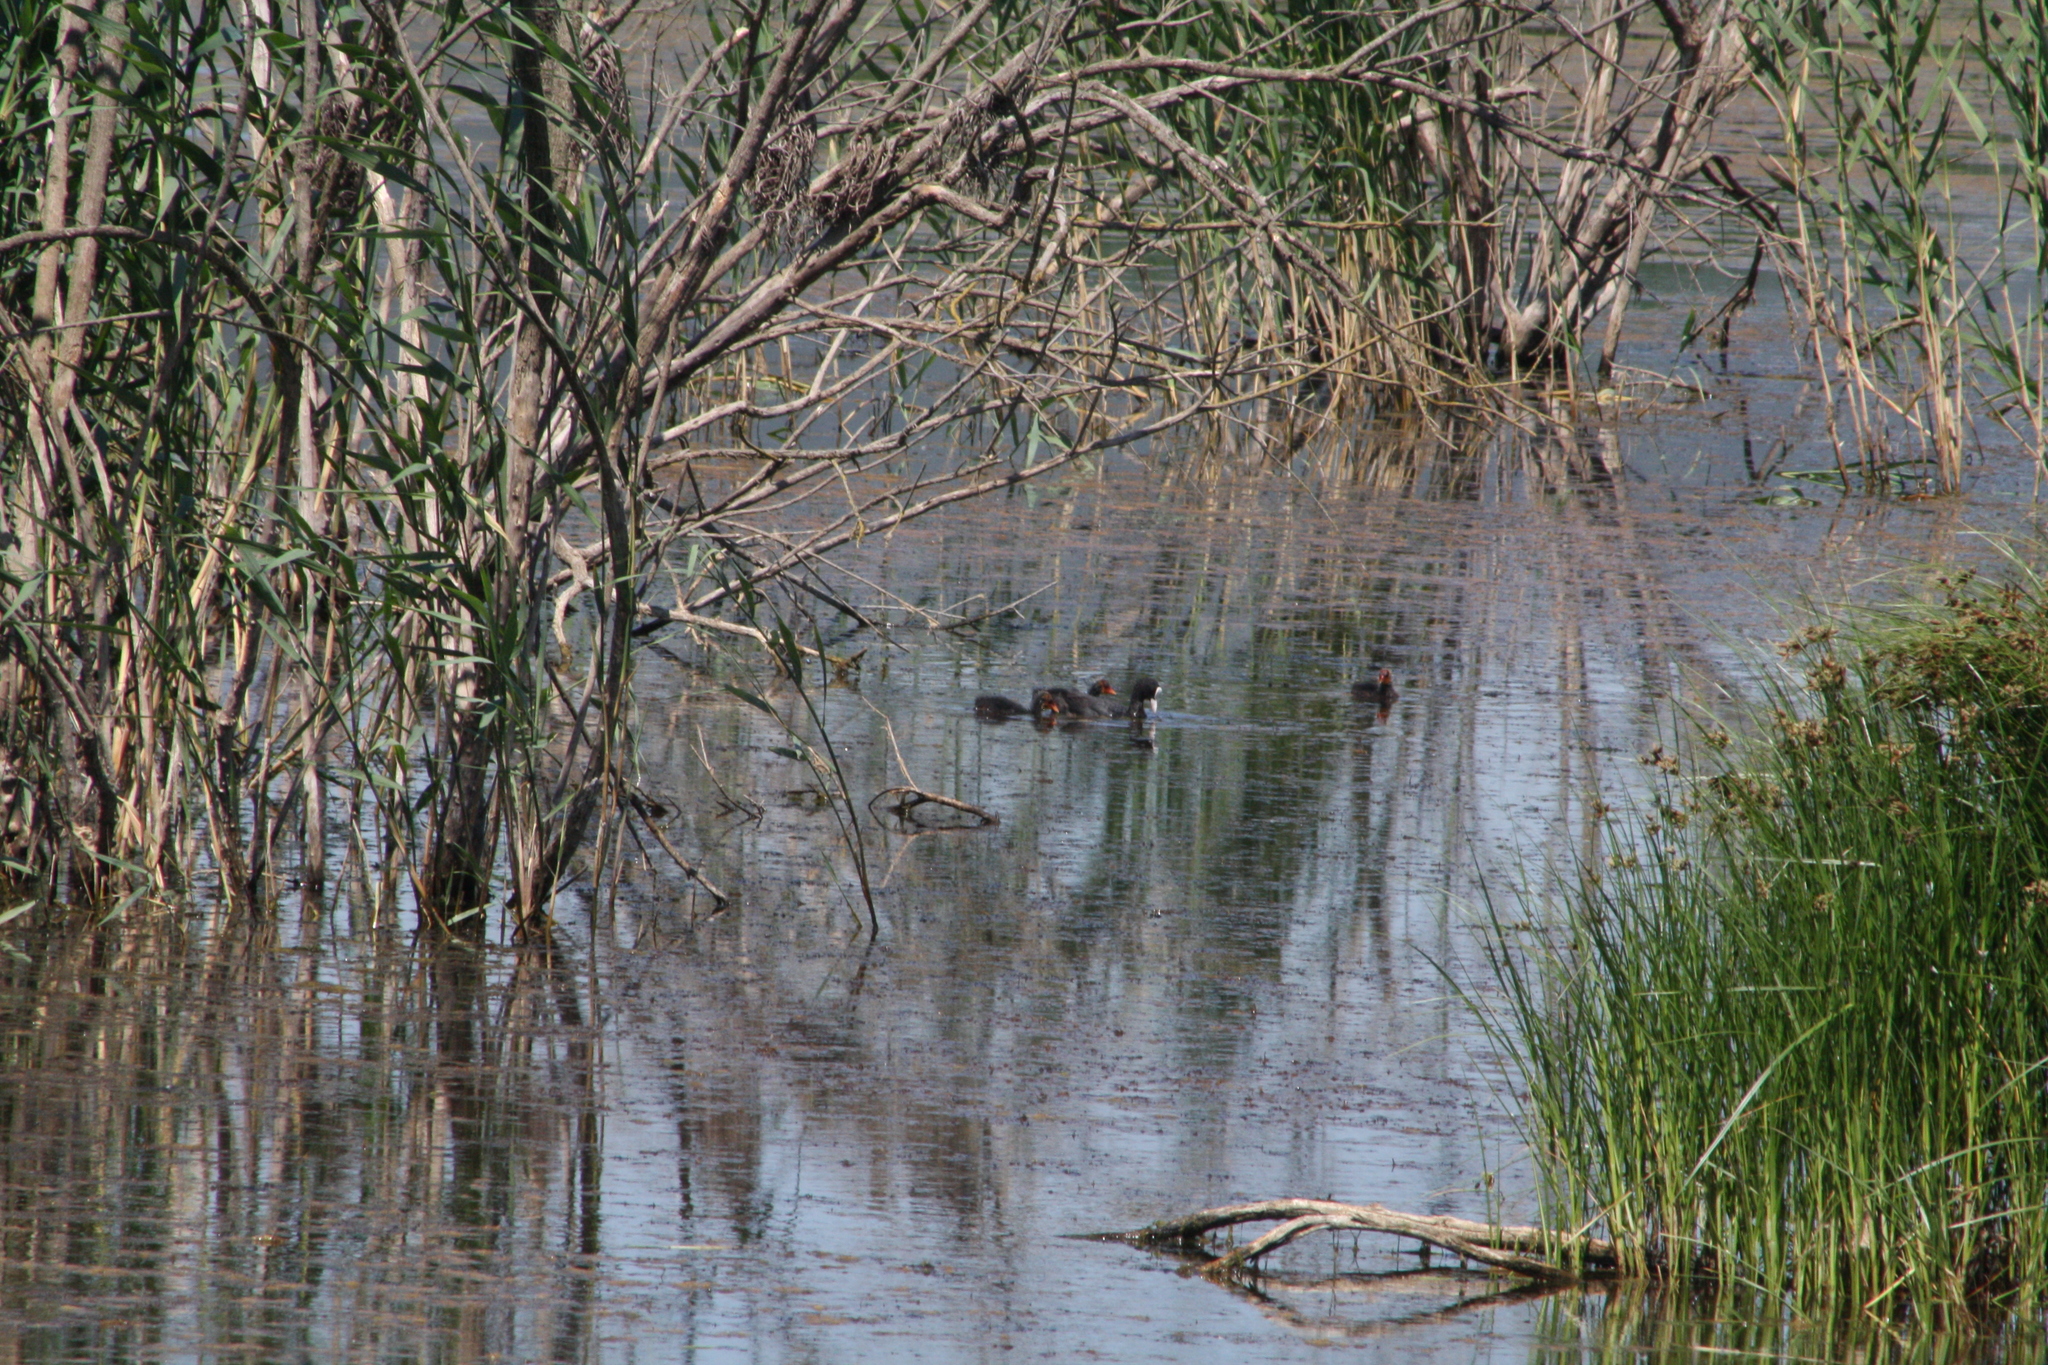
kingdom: Animalia
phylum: Chordata
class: Aves
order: Gruiformes
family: Rallidae
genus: Fulica
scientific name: Fulica atra
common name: Eurasian coot
